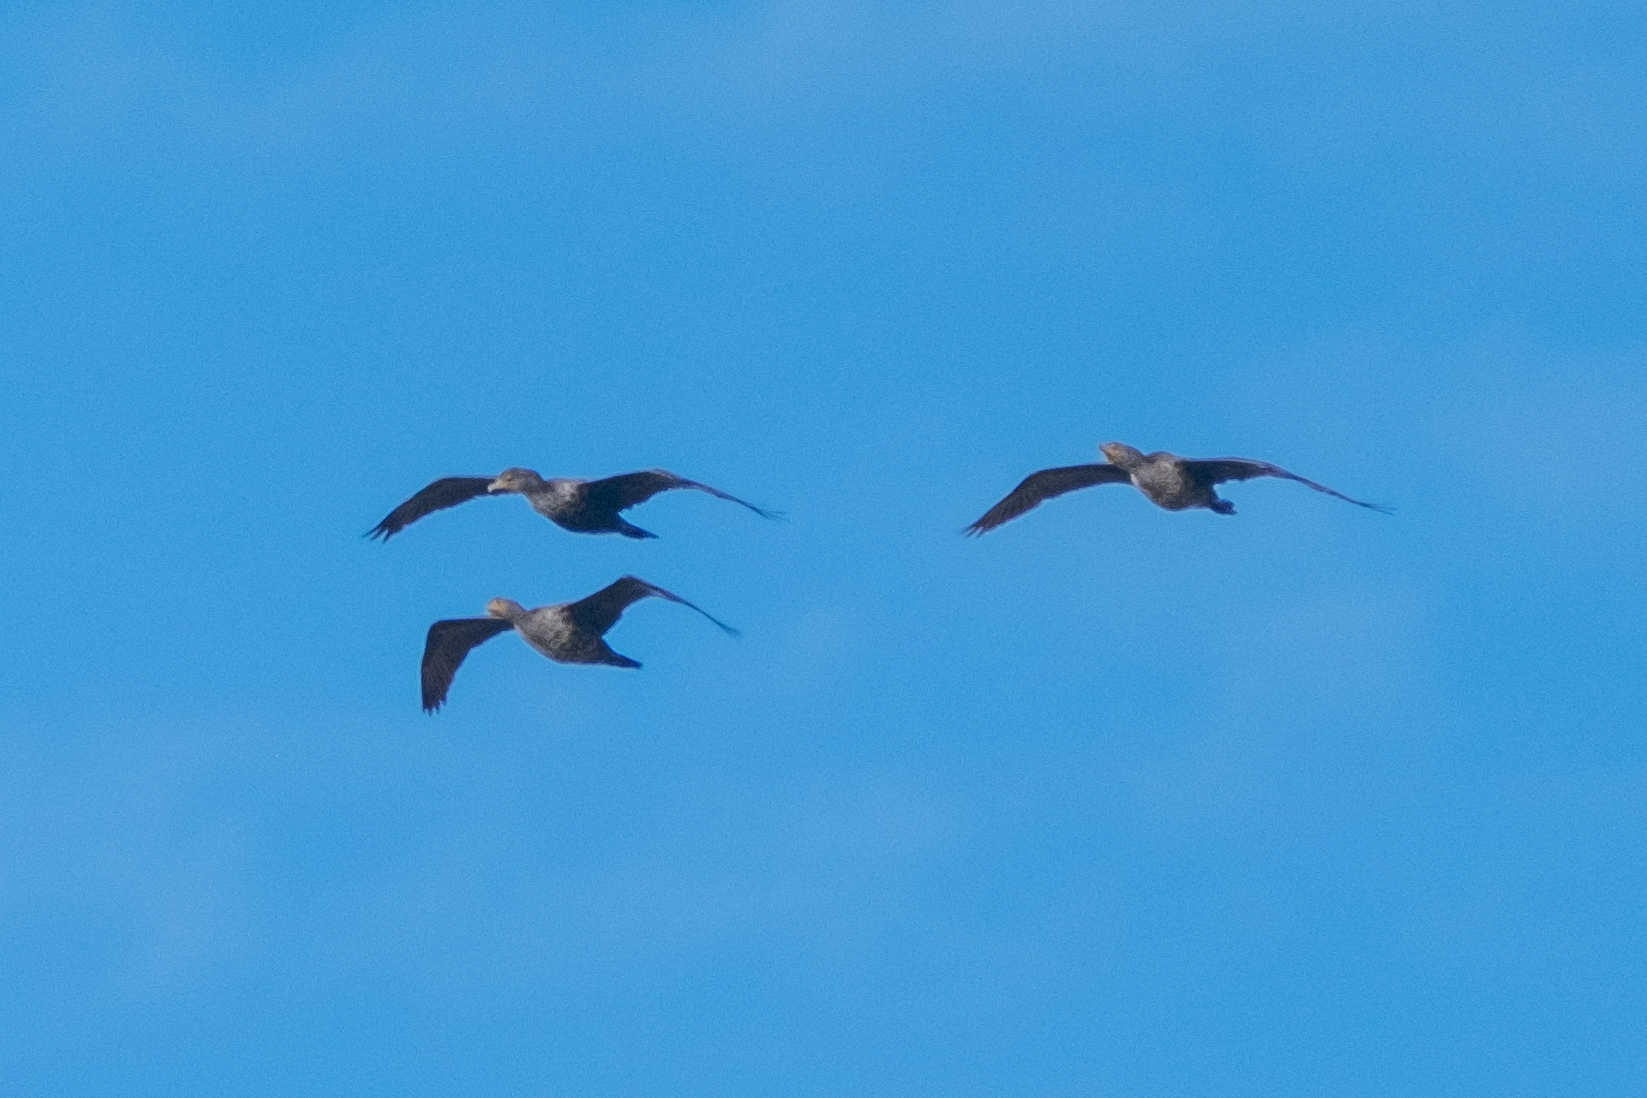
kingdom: Animalia
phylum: Chordata
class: Aves
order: Suliformes
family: Phalacrocoracidae
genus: Phalacrocorax
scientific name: Phalacrocorax auritus
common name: Double-crested cormorant
